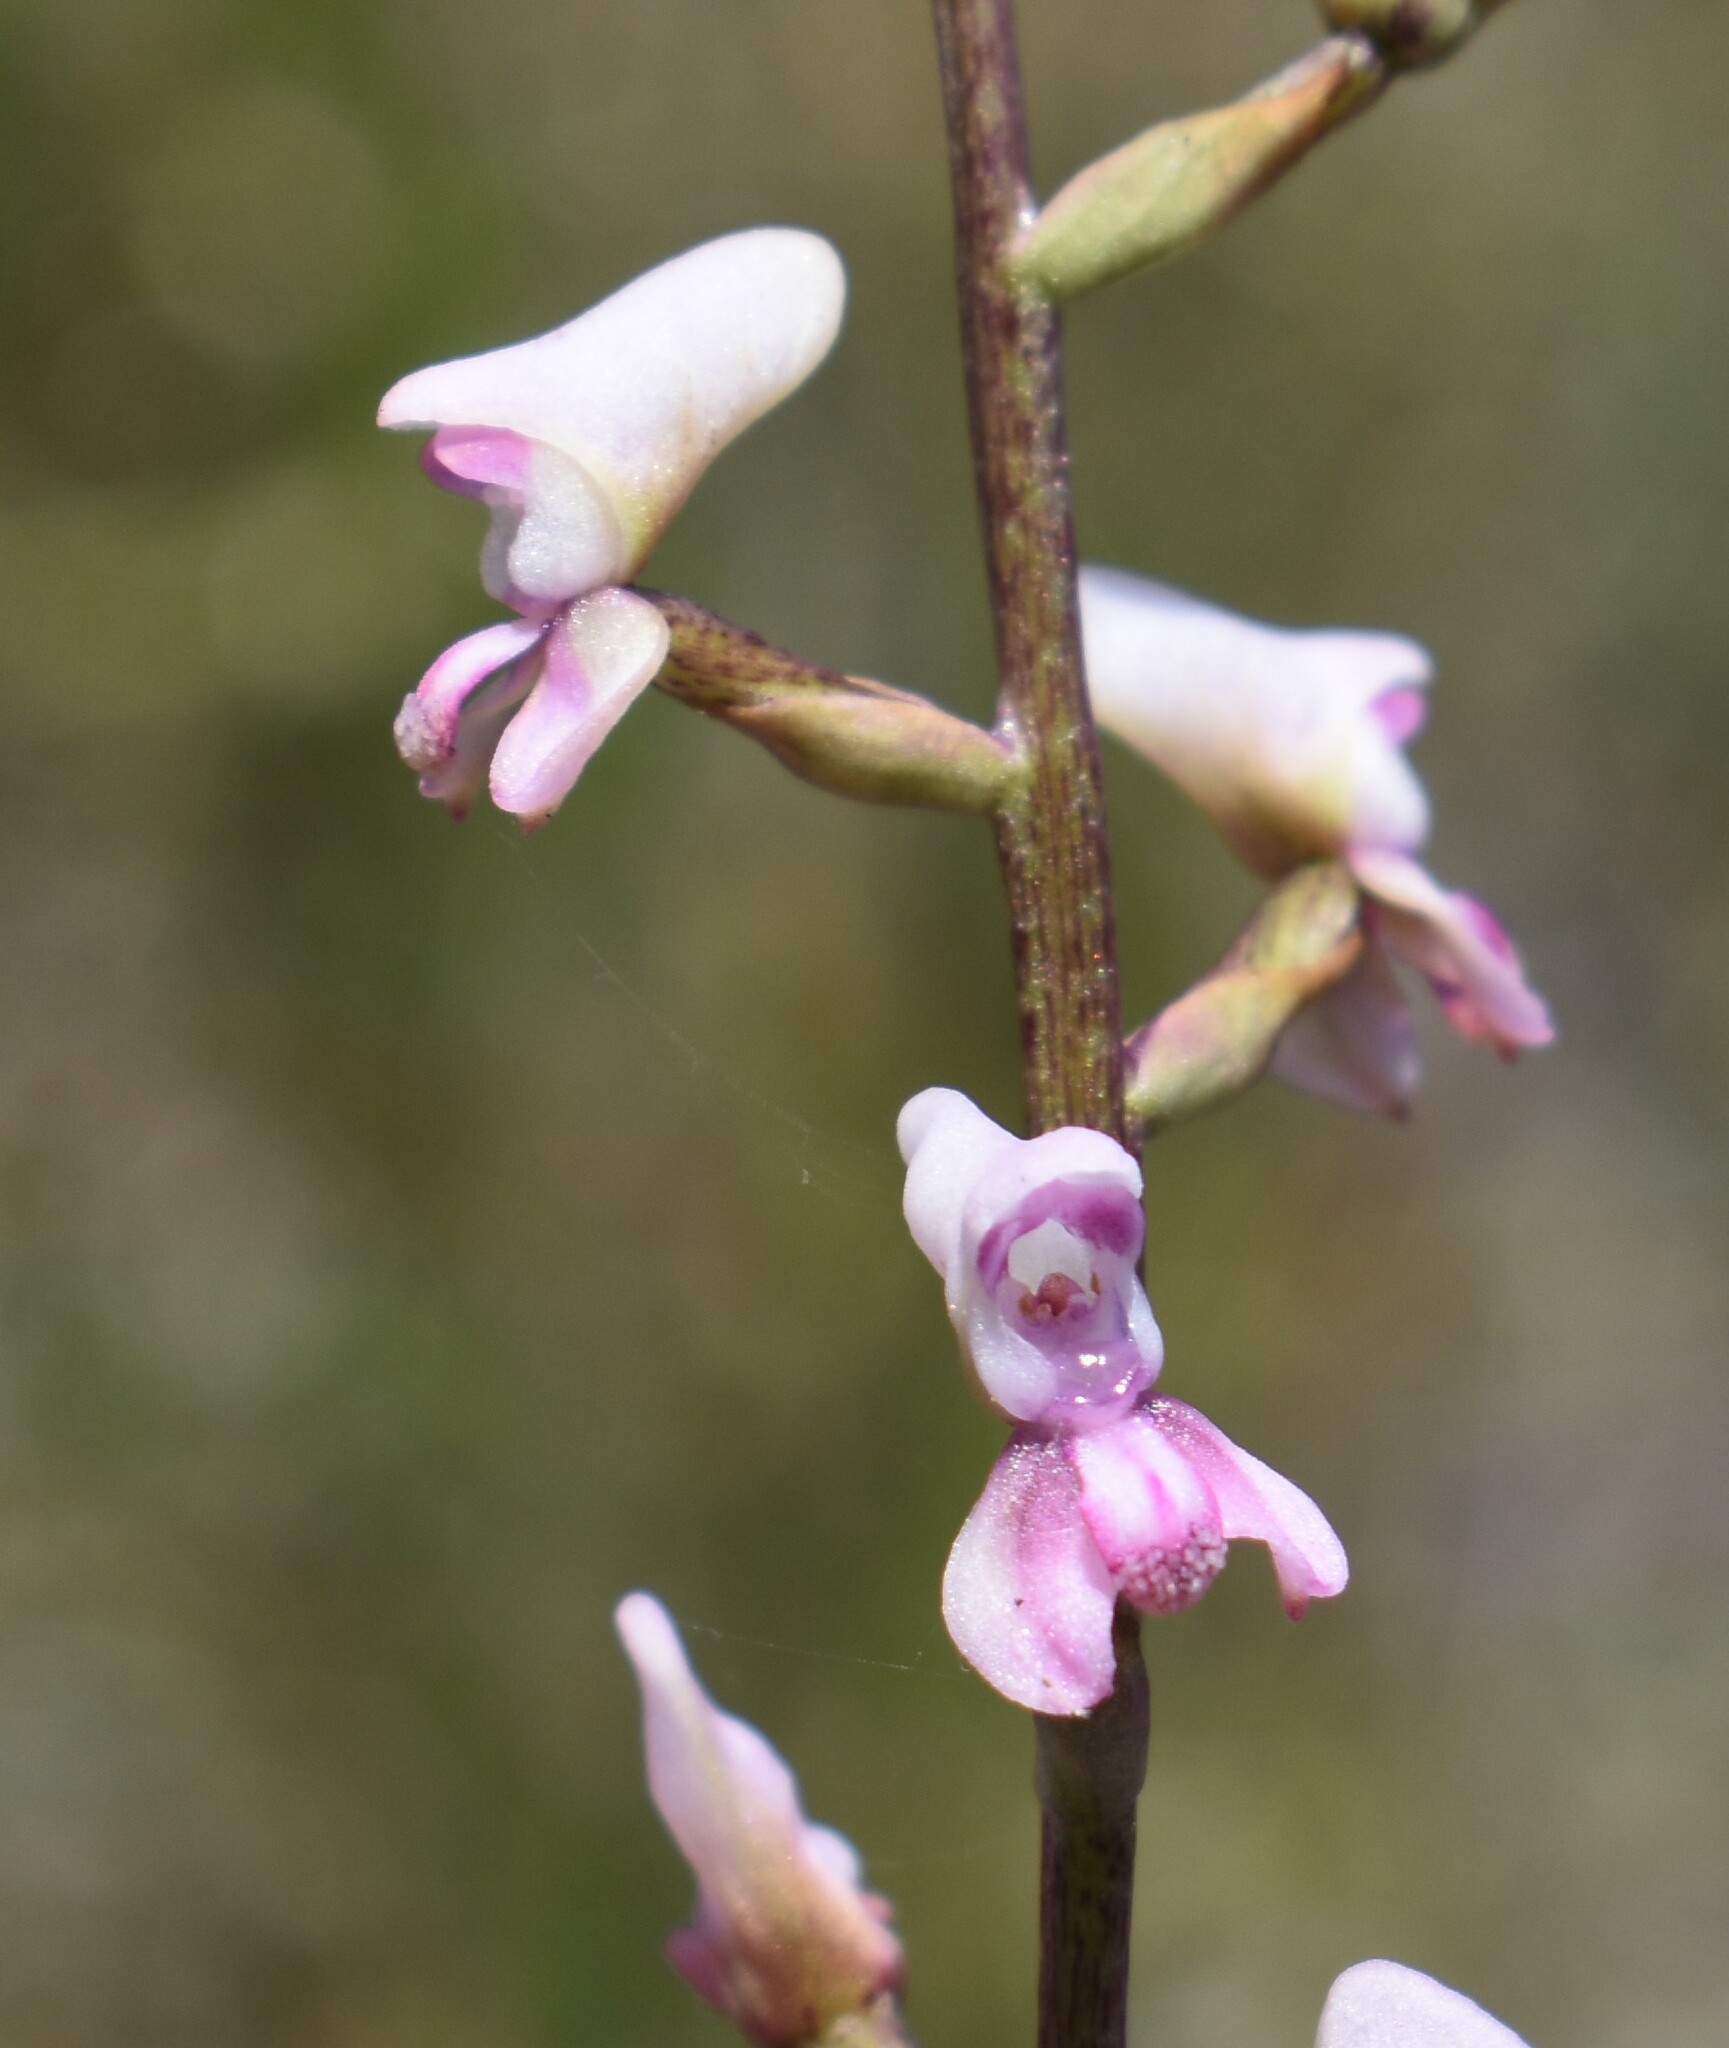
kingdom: Plantae
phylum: Tracheophyta
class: Liliopsida
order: Asparagales
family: Orchidaceae
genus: Disa
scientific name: Disa aconitoides
